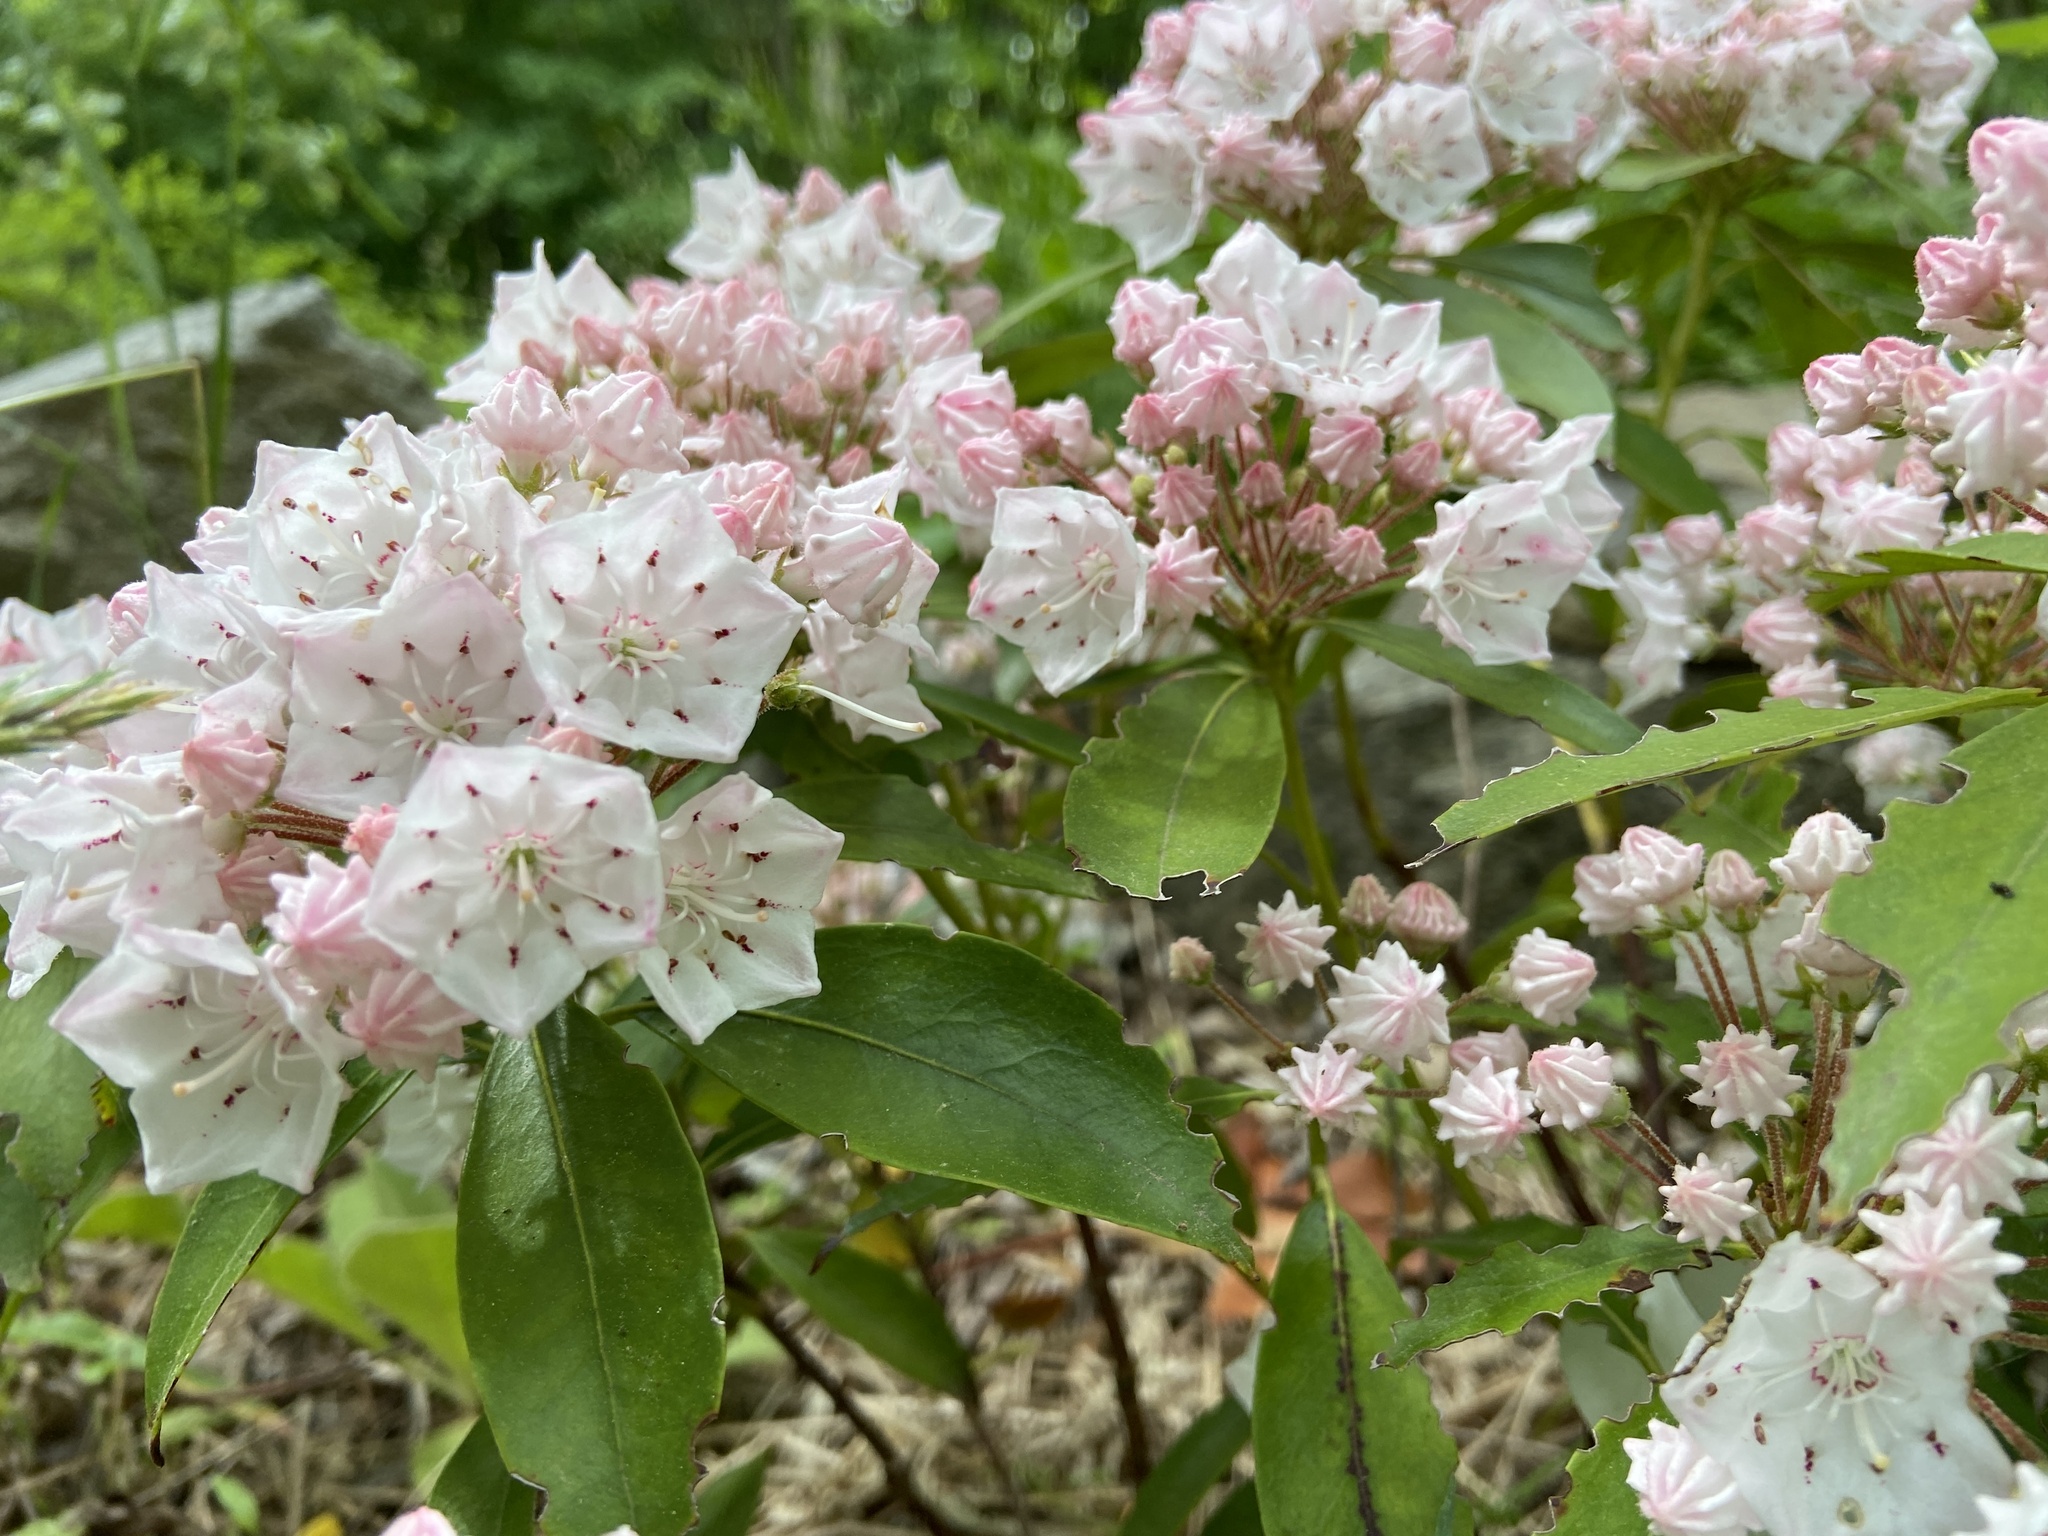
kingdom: Plantae
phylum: Tracheophyta
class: Magnoliopsida
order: Ericales
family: Ericaceae
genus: Kalmia
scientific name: Kalmia latifolia
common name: Mountain-laurel
